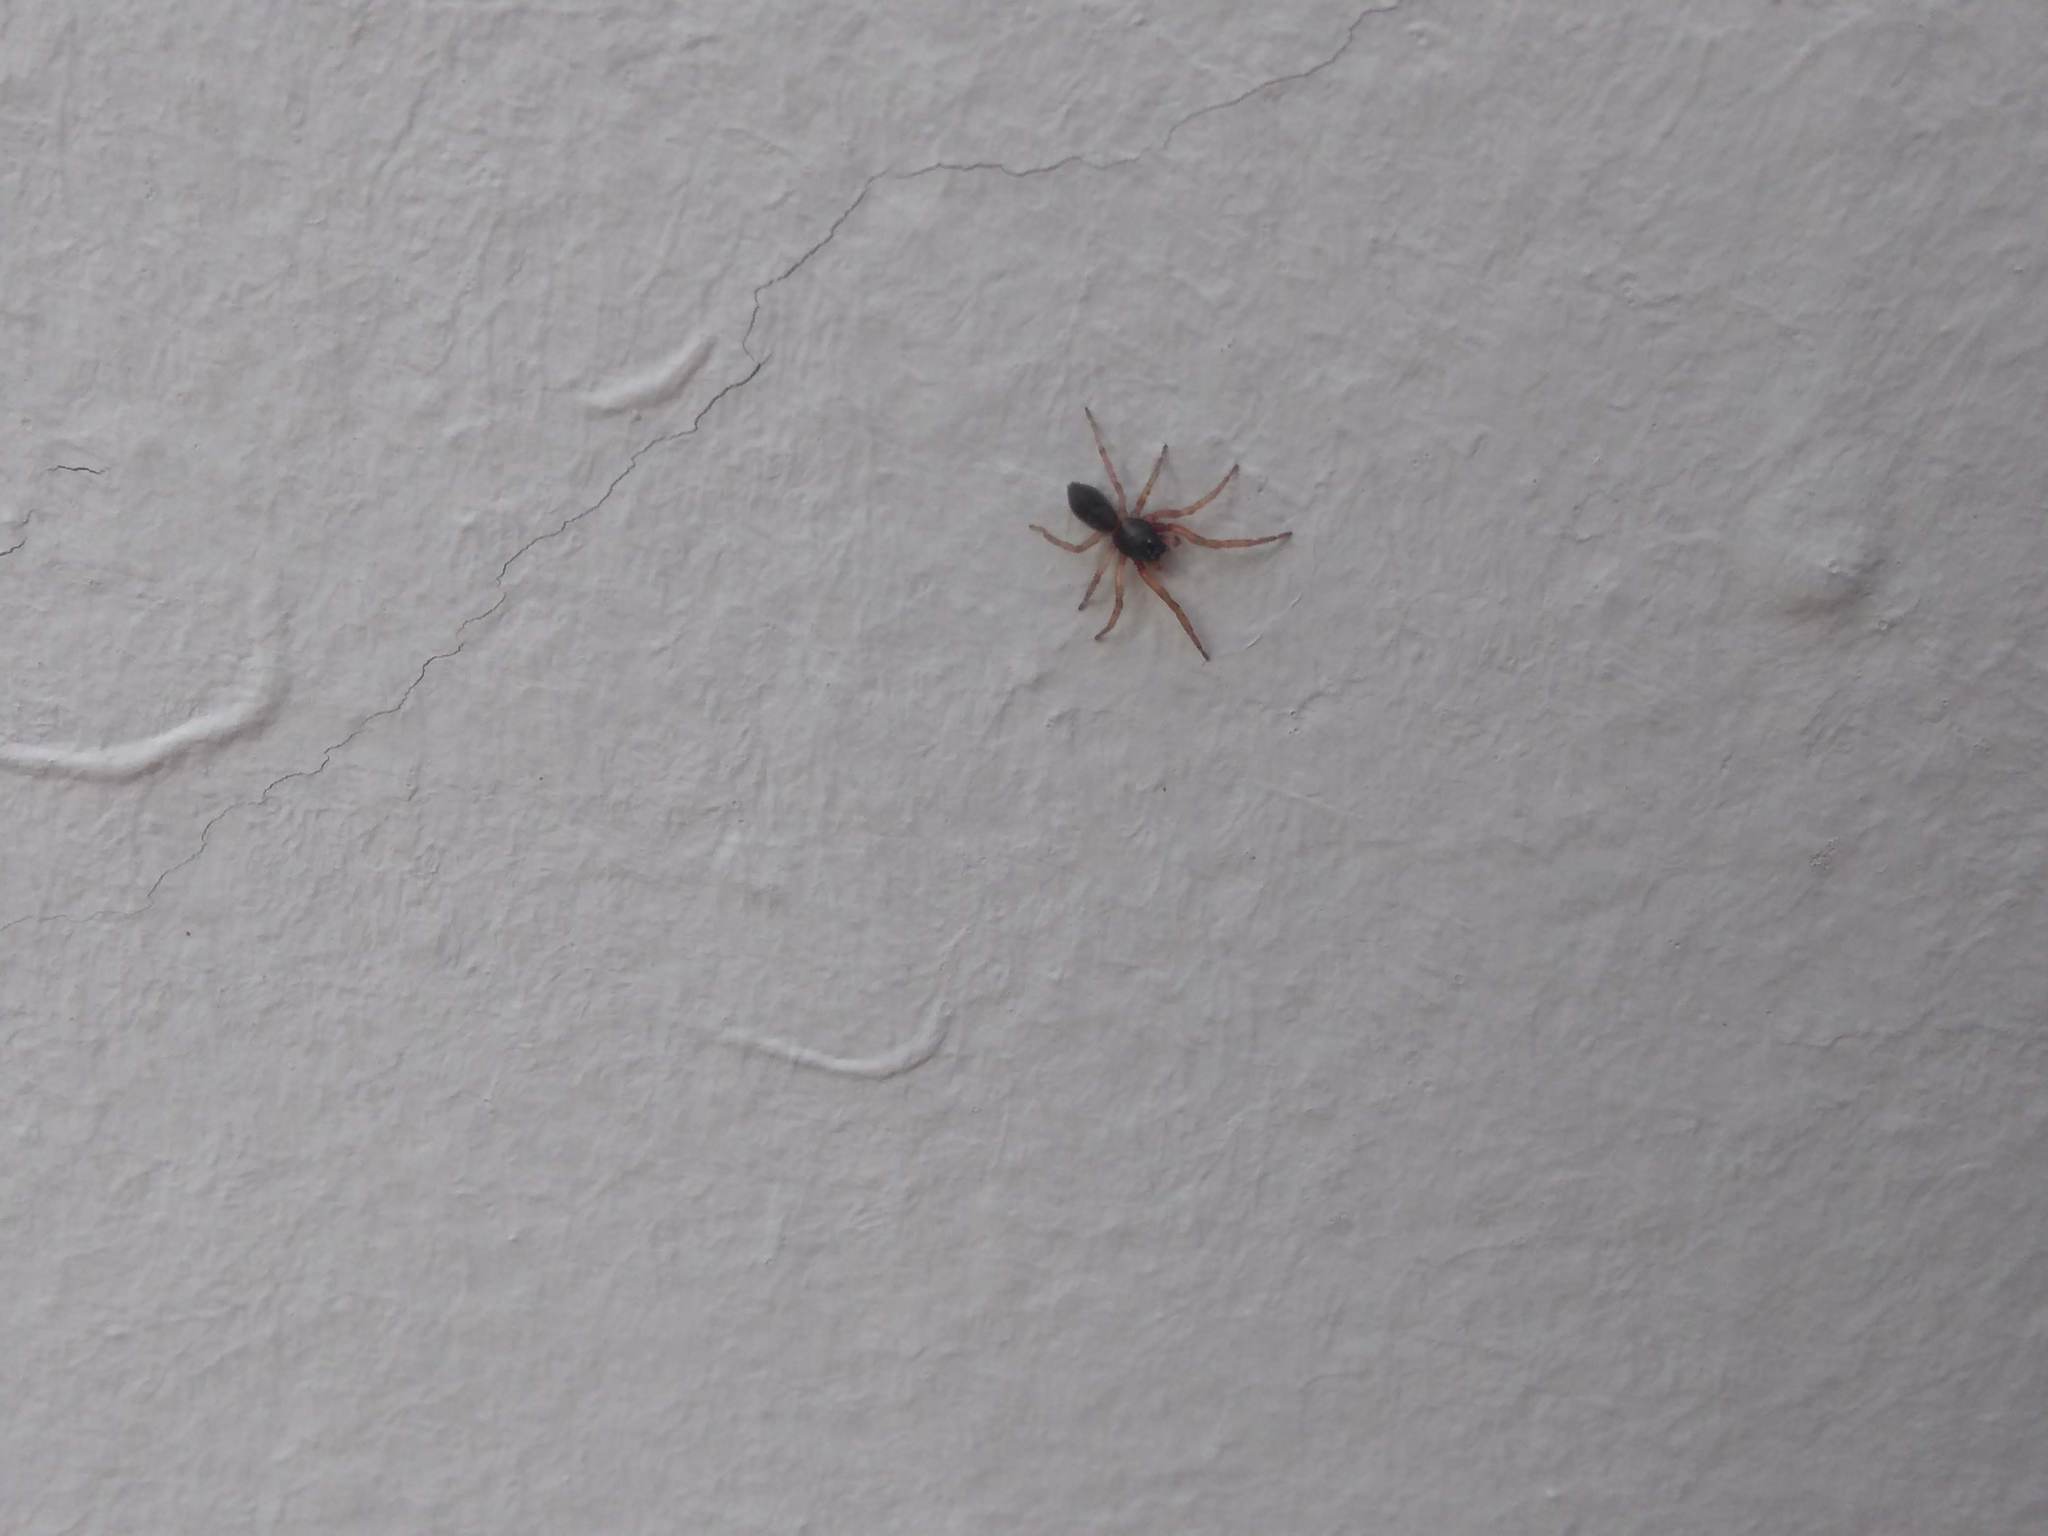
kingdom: Animalia
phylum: Arthropoda
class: Arachnida
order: Araneae
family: Trachelidae
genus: Meriola
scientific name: Meriola
